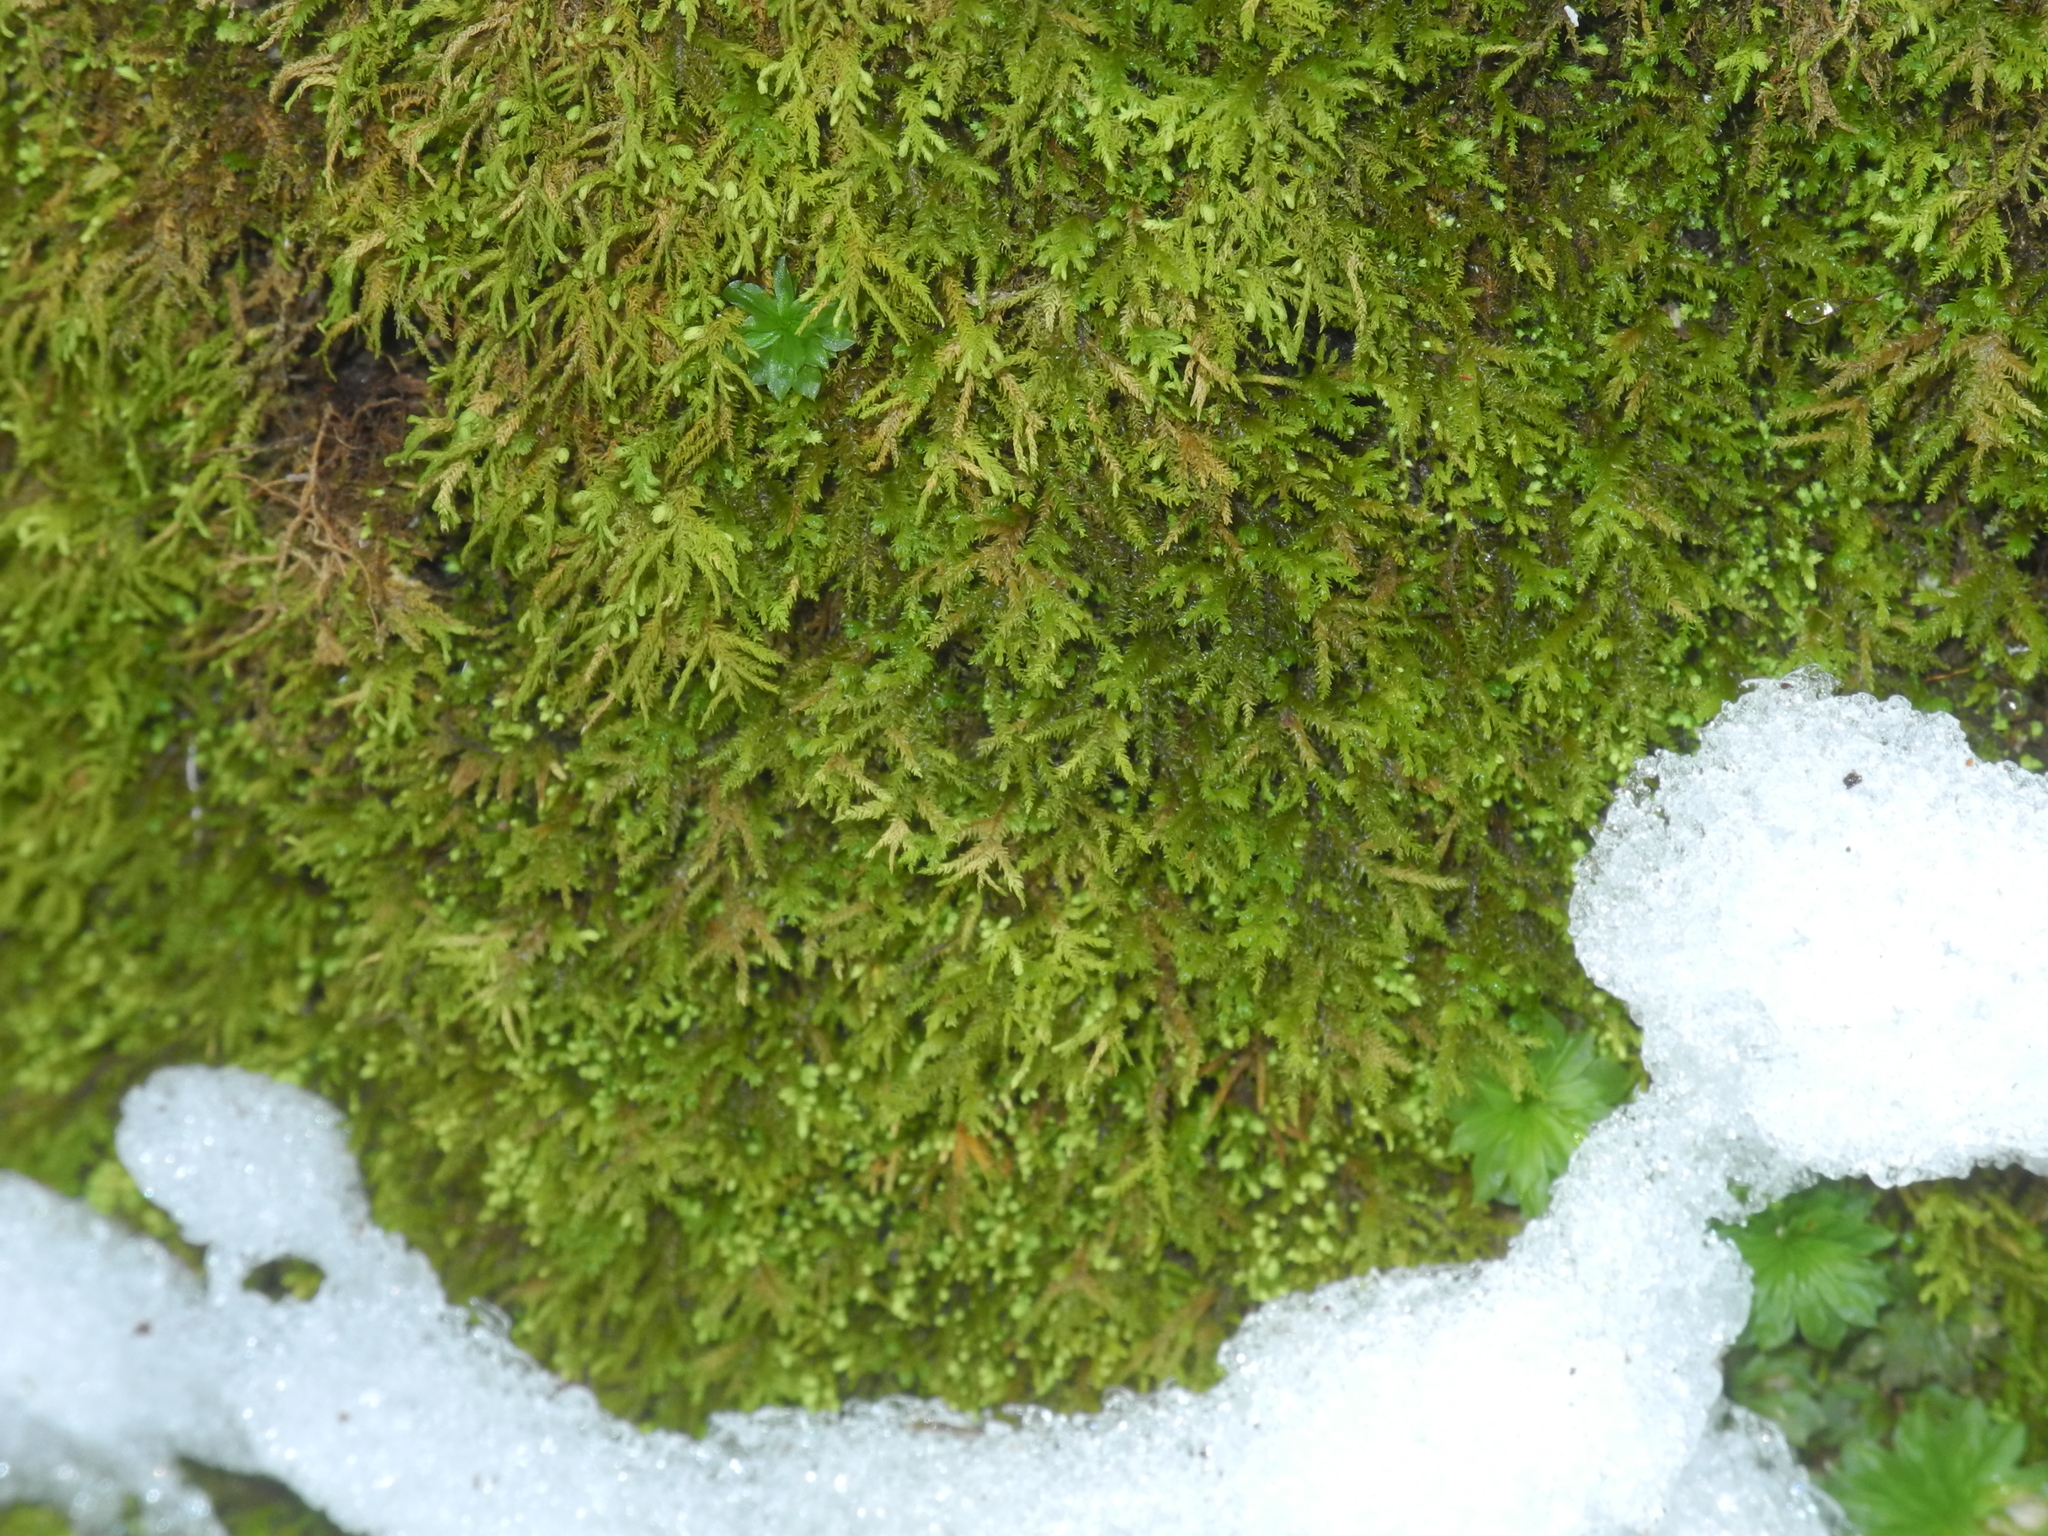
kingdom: Plantae
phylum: Bryophyta
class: Bryopsida
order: Hypnales
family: Neckeraceae
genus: Pseudanomodon
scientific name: Pseudanomodon attenuatus
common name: Tree-skirt moss
